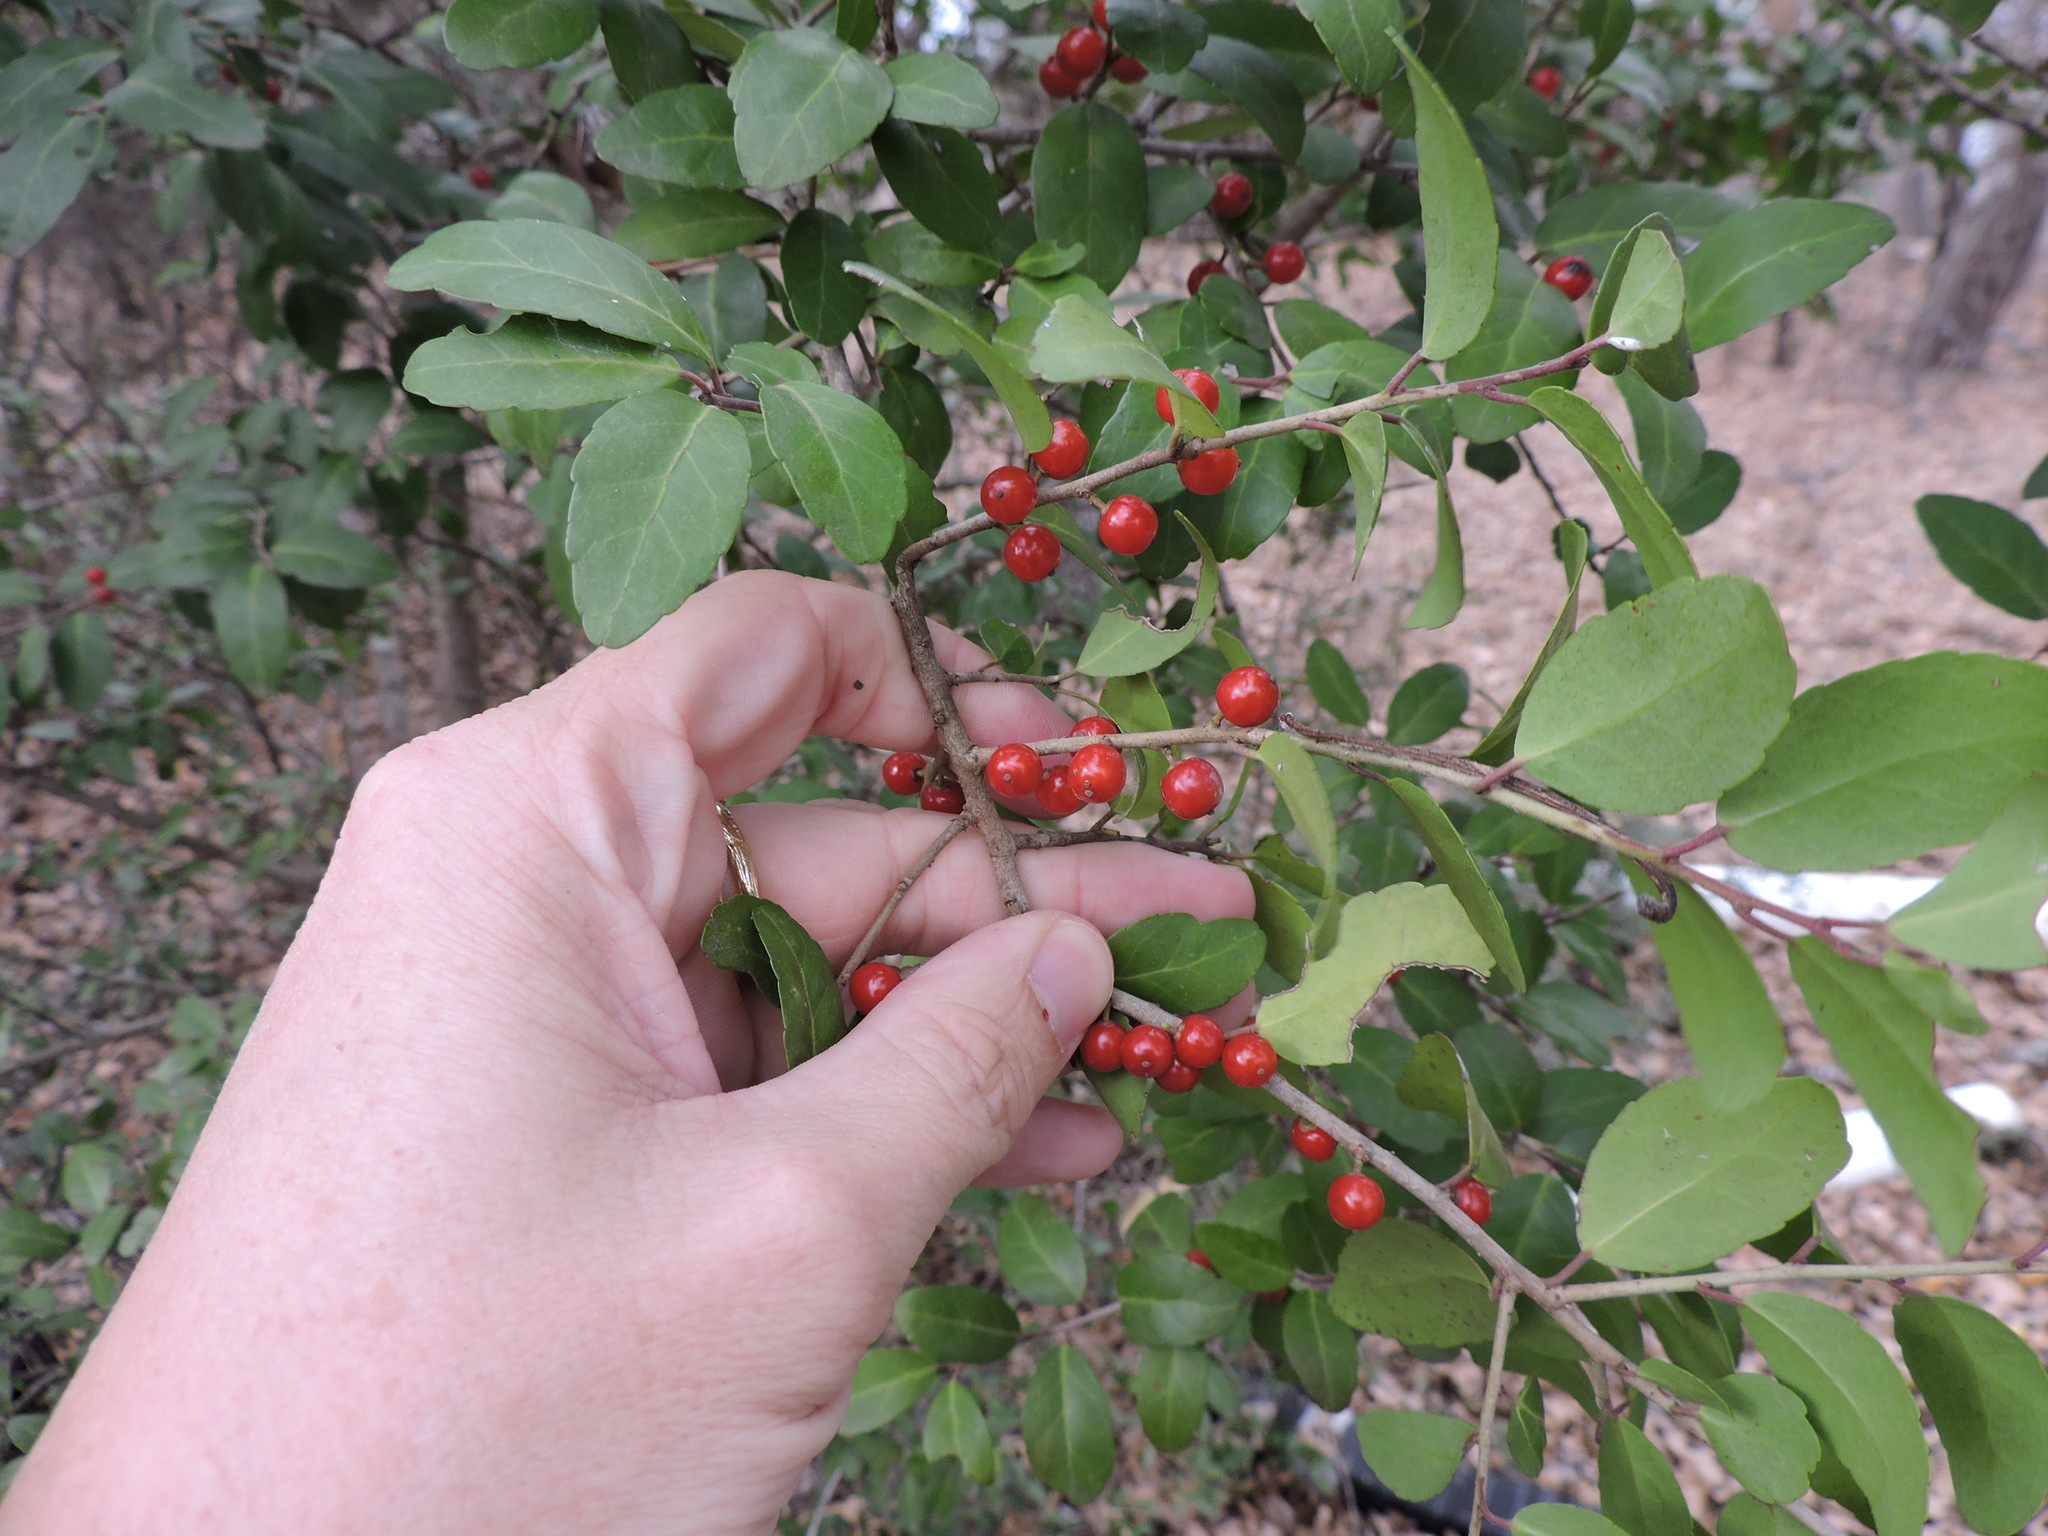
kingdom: Plantae
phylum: Tracheophyta
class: Magnoliopsida
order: Aquifoliales
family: Aquifoliaceae
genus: Ilex
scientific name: Ilex vomitoria
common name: Yaupon holly
